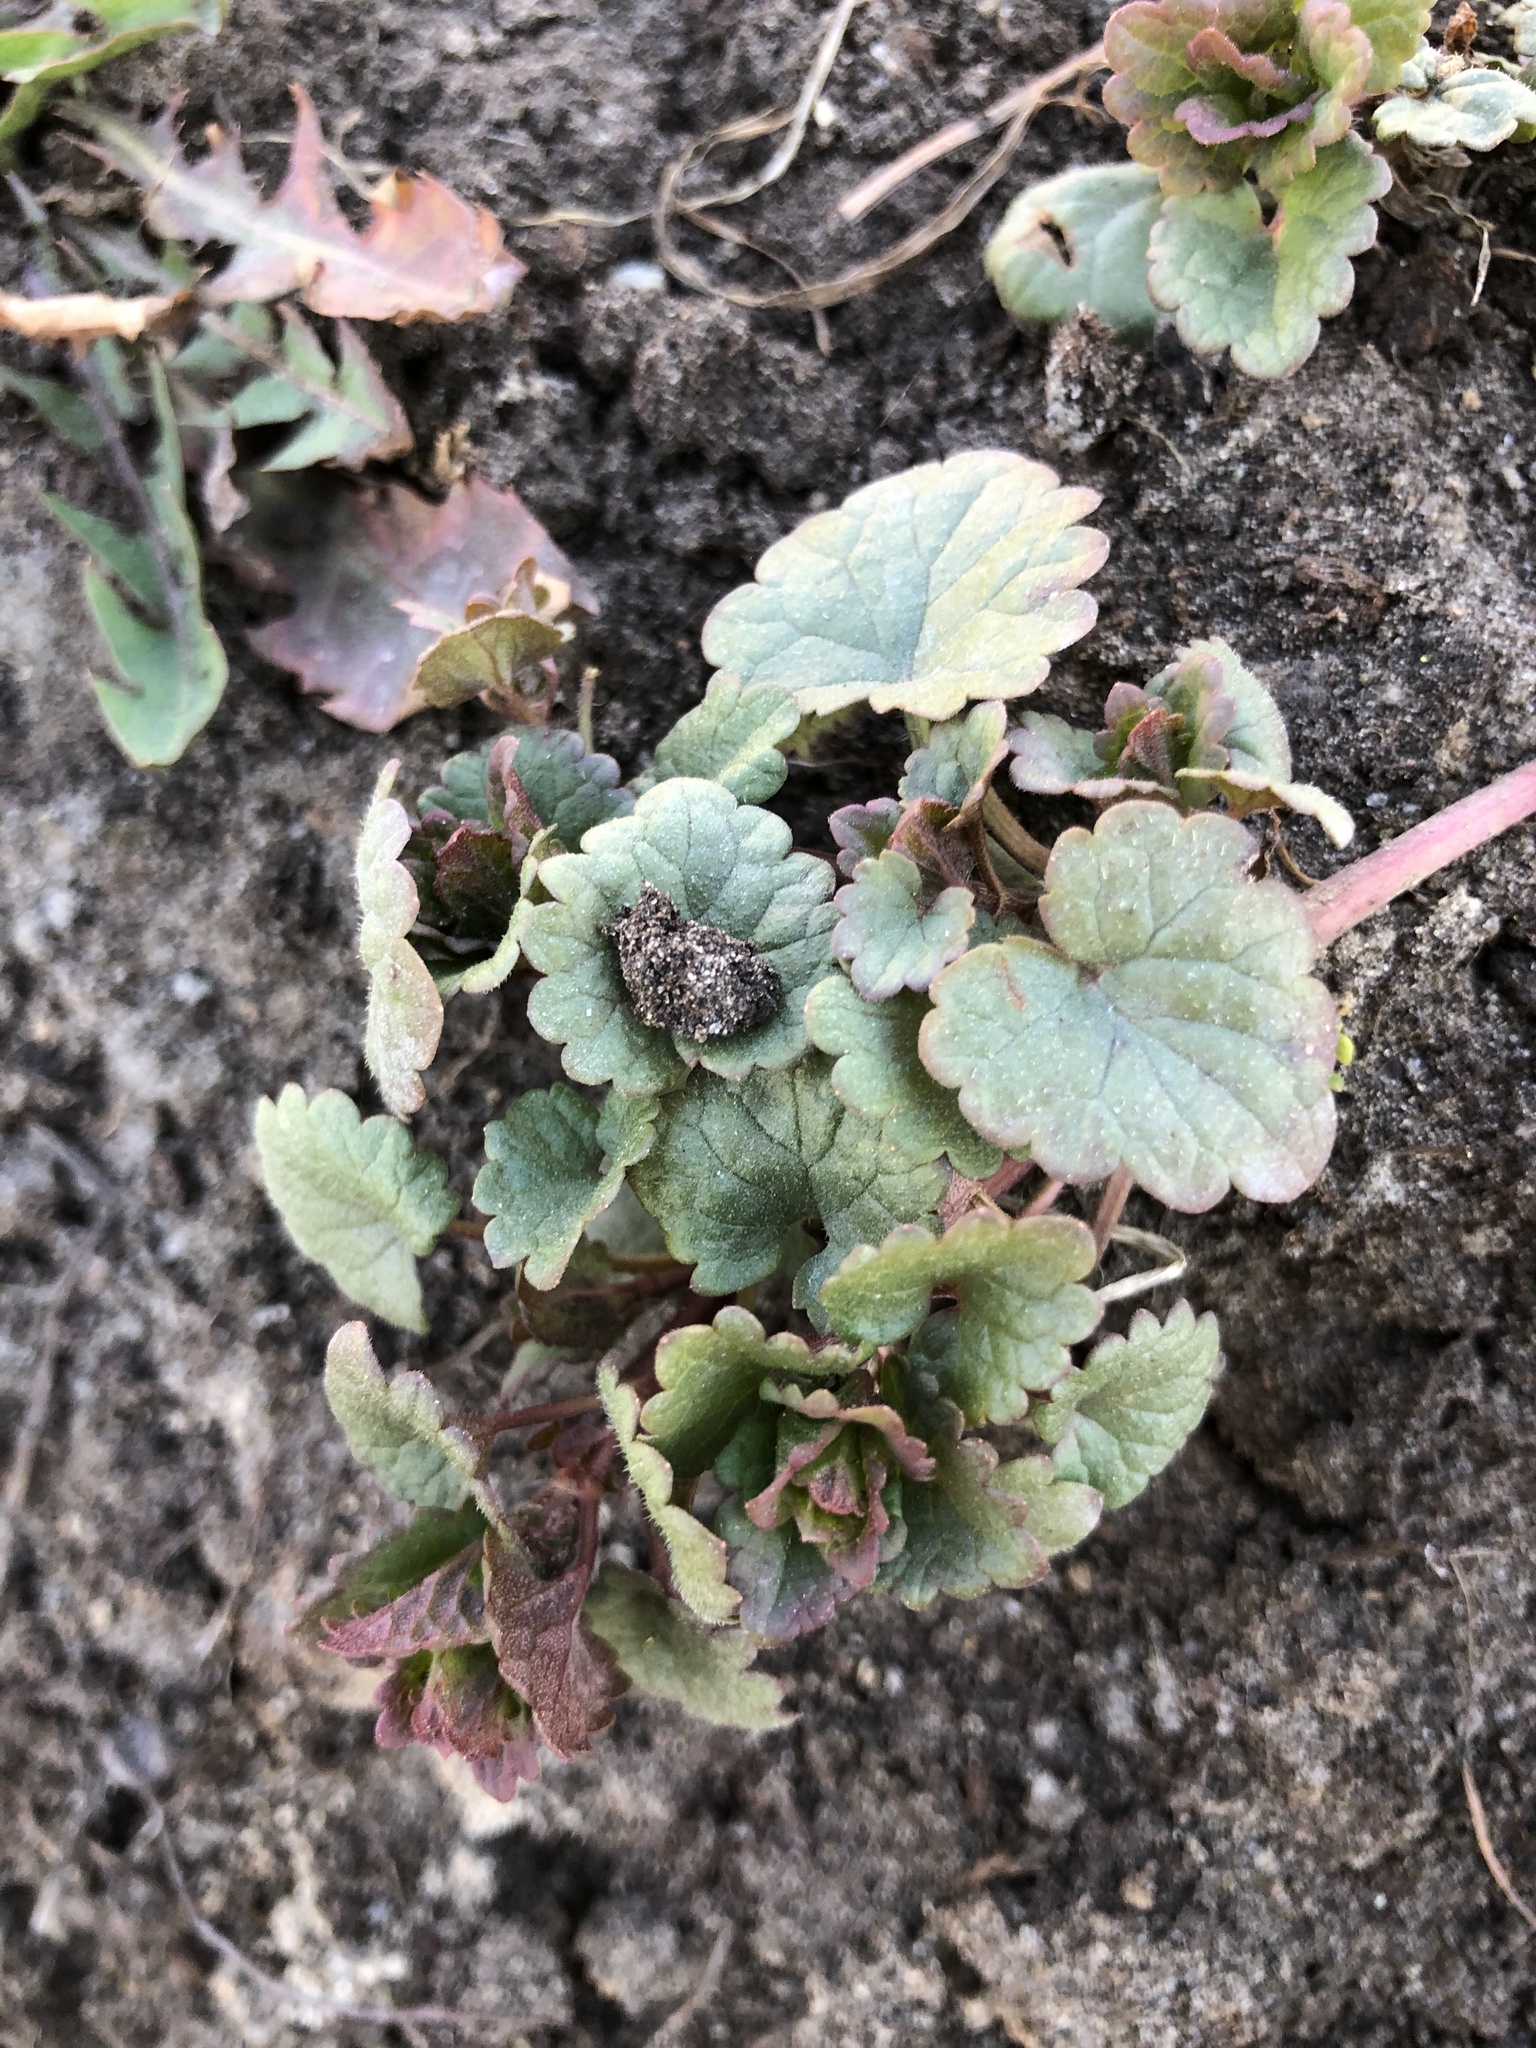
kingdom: Plantae
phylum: Tracheophyta
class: Magnoliopsida
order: Lamiales
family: Lamiaceae
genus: Glechoma
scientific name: Glechoma hederacea
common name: Ground ivy
